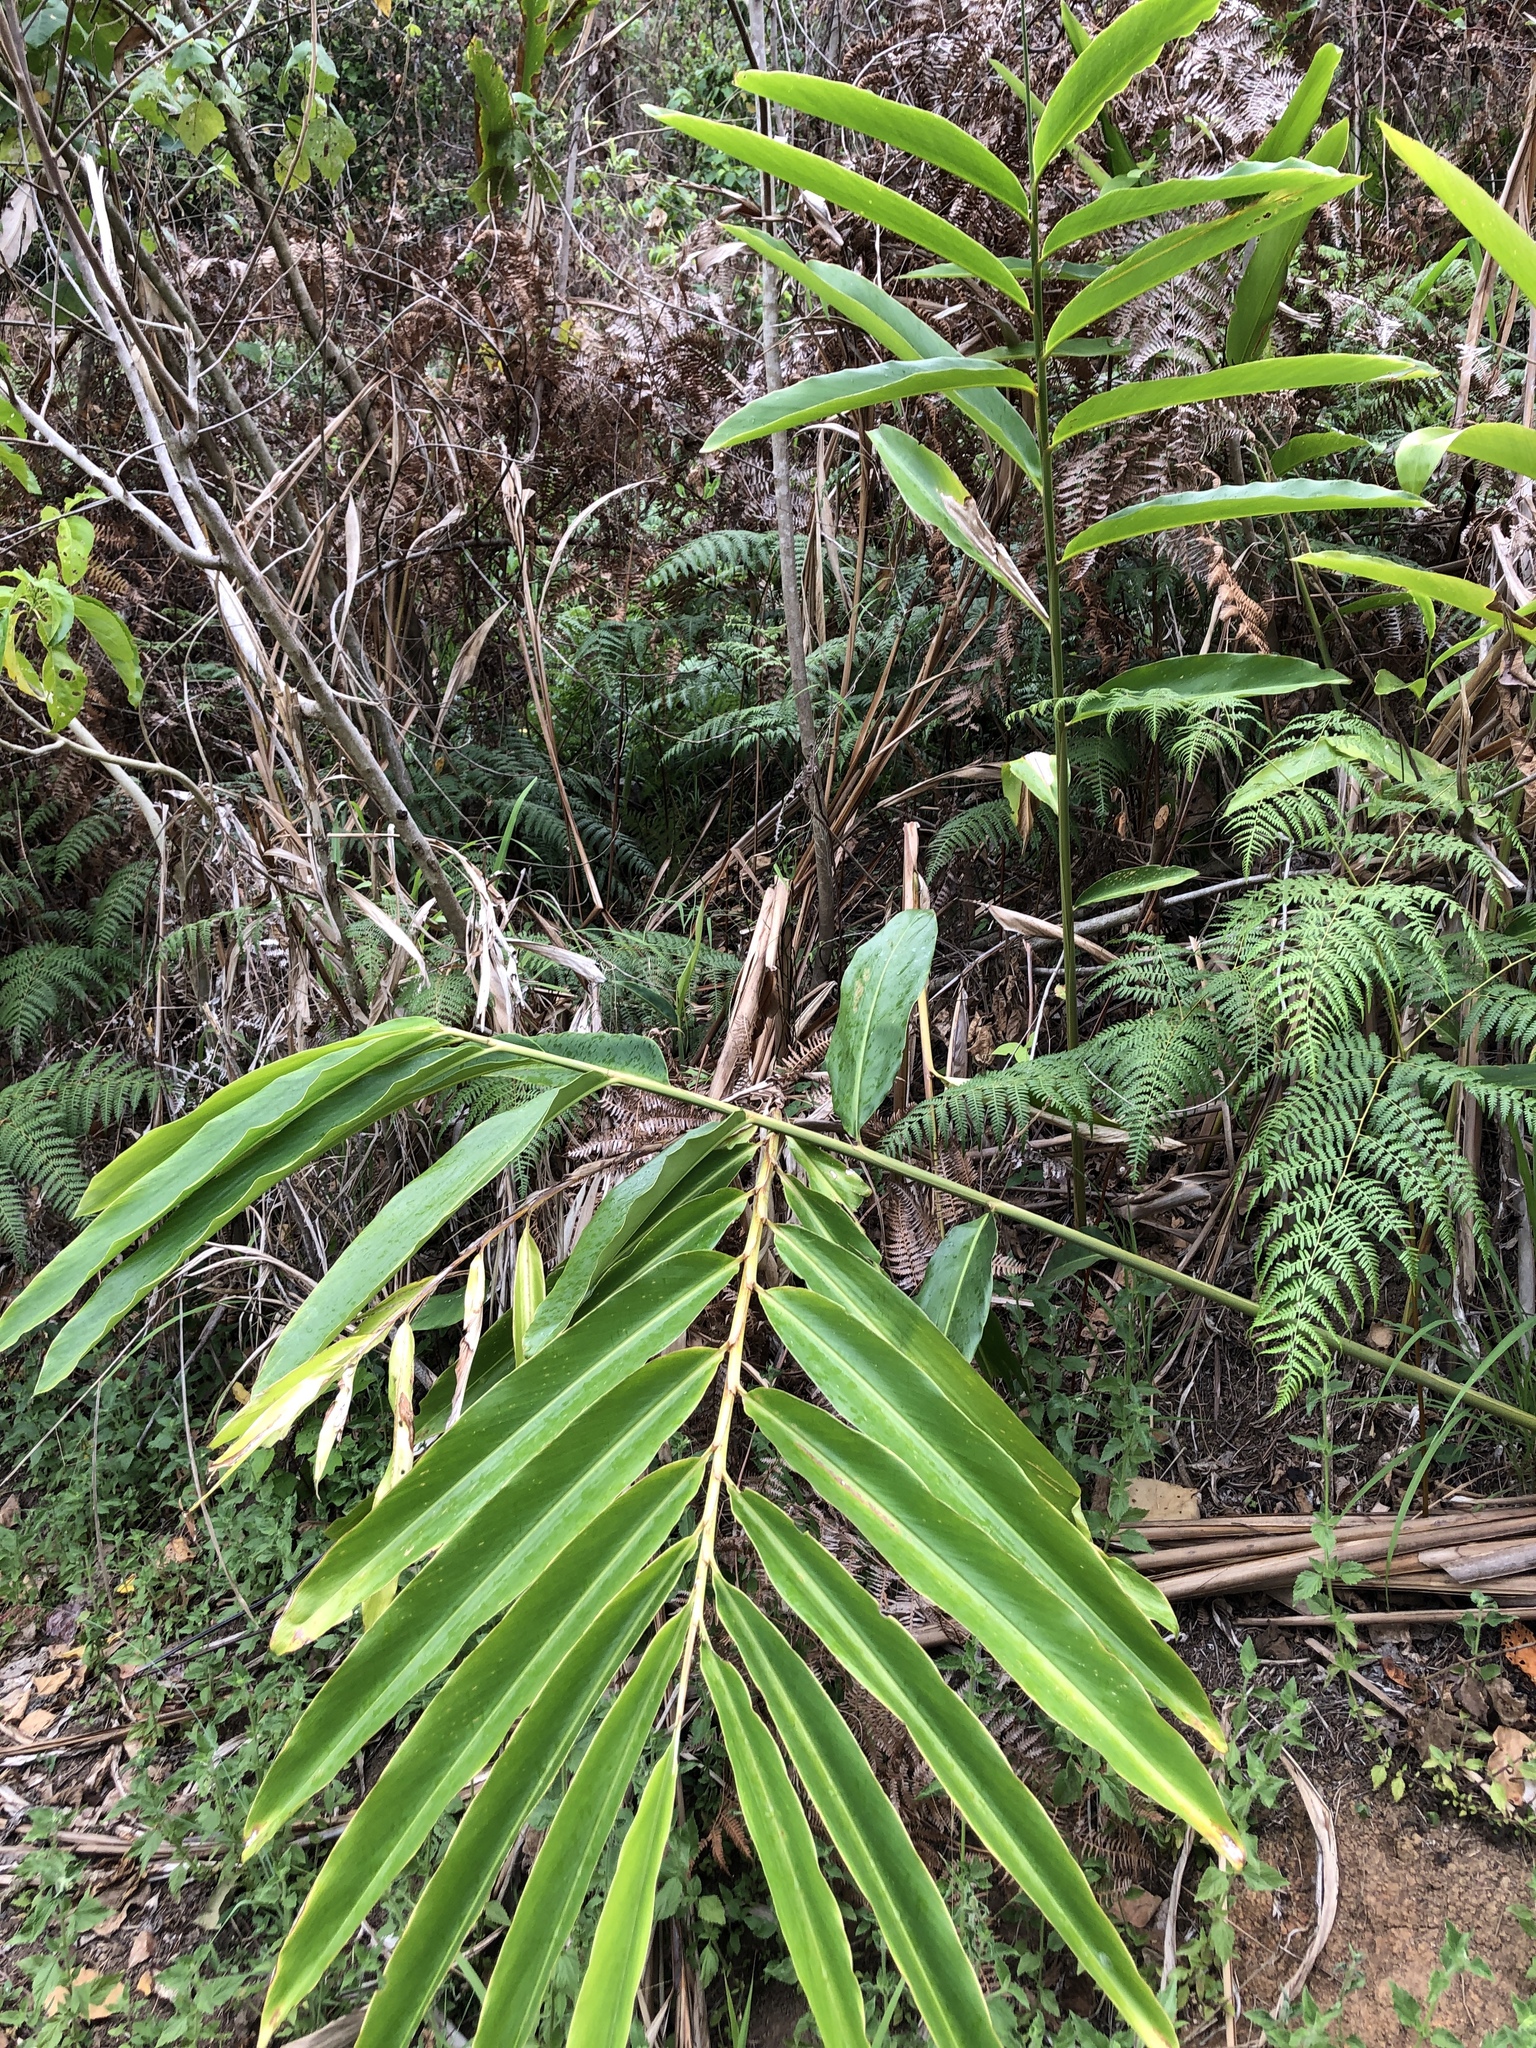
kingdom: Plantae
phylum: Tracheophyta
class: Liliopsida
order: Zingiberales
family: Zingiberaceae
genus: Alpinia
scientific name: Alpinia caerulea
